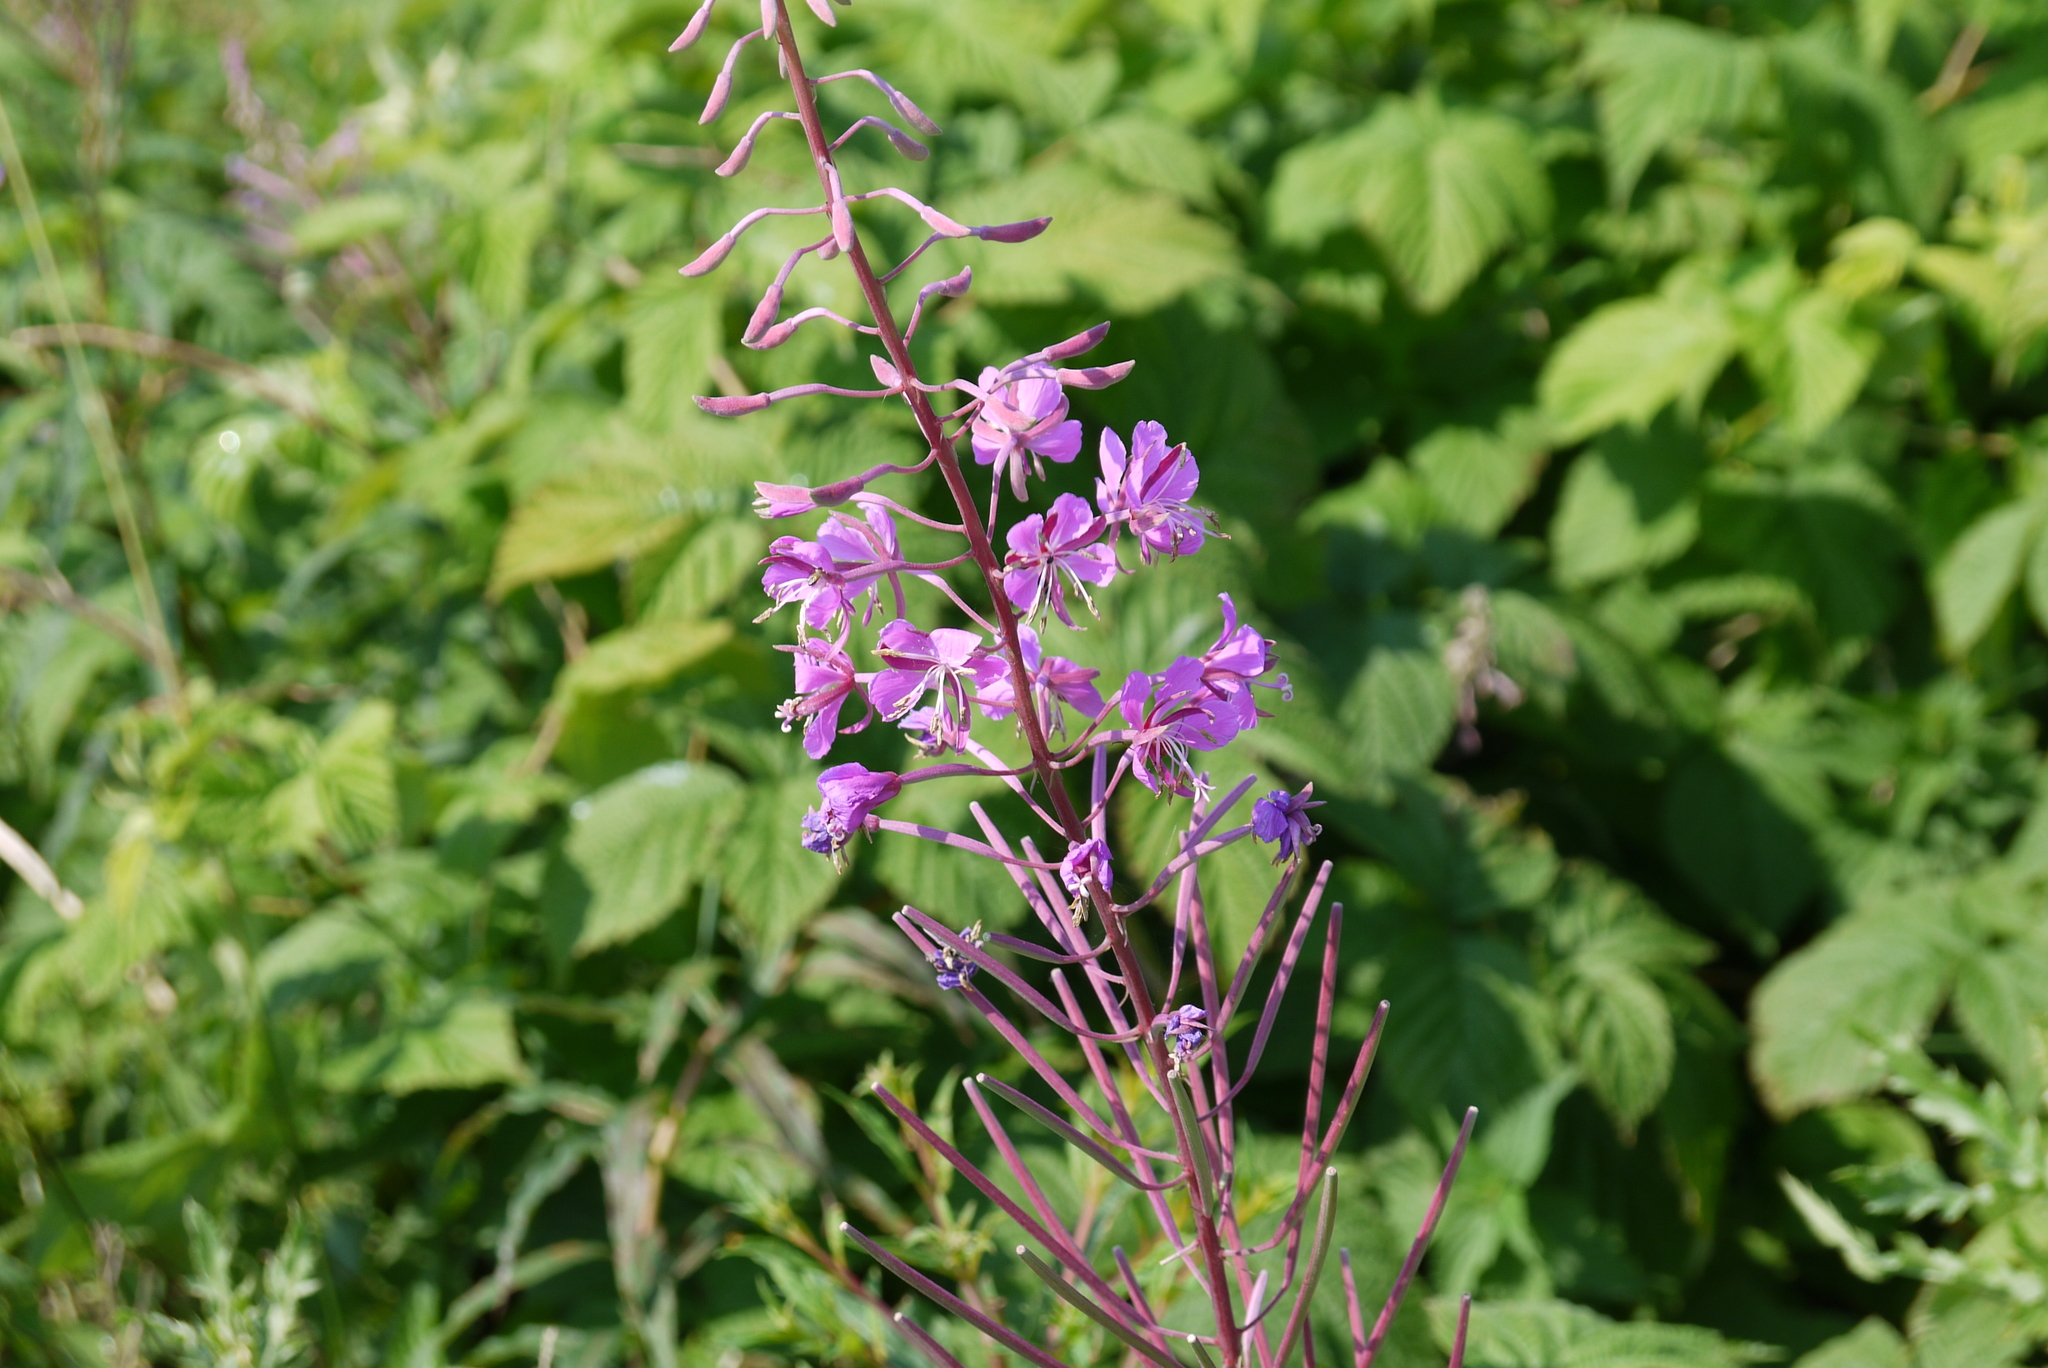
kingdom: Plantae
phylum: Tracheophyta
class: Magnoliopsida
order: Myrtales
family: Onagraceae
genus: Chamaenerion
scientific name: Chamaenerion angustifolium
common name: Fireweed
